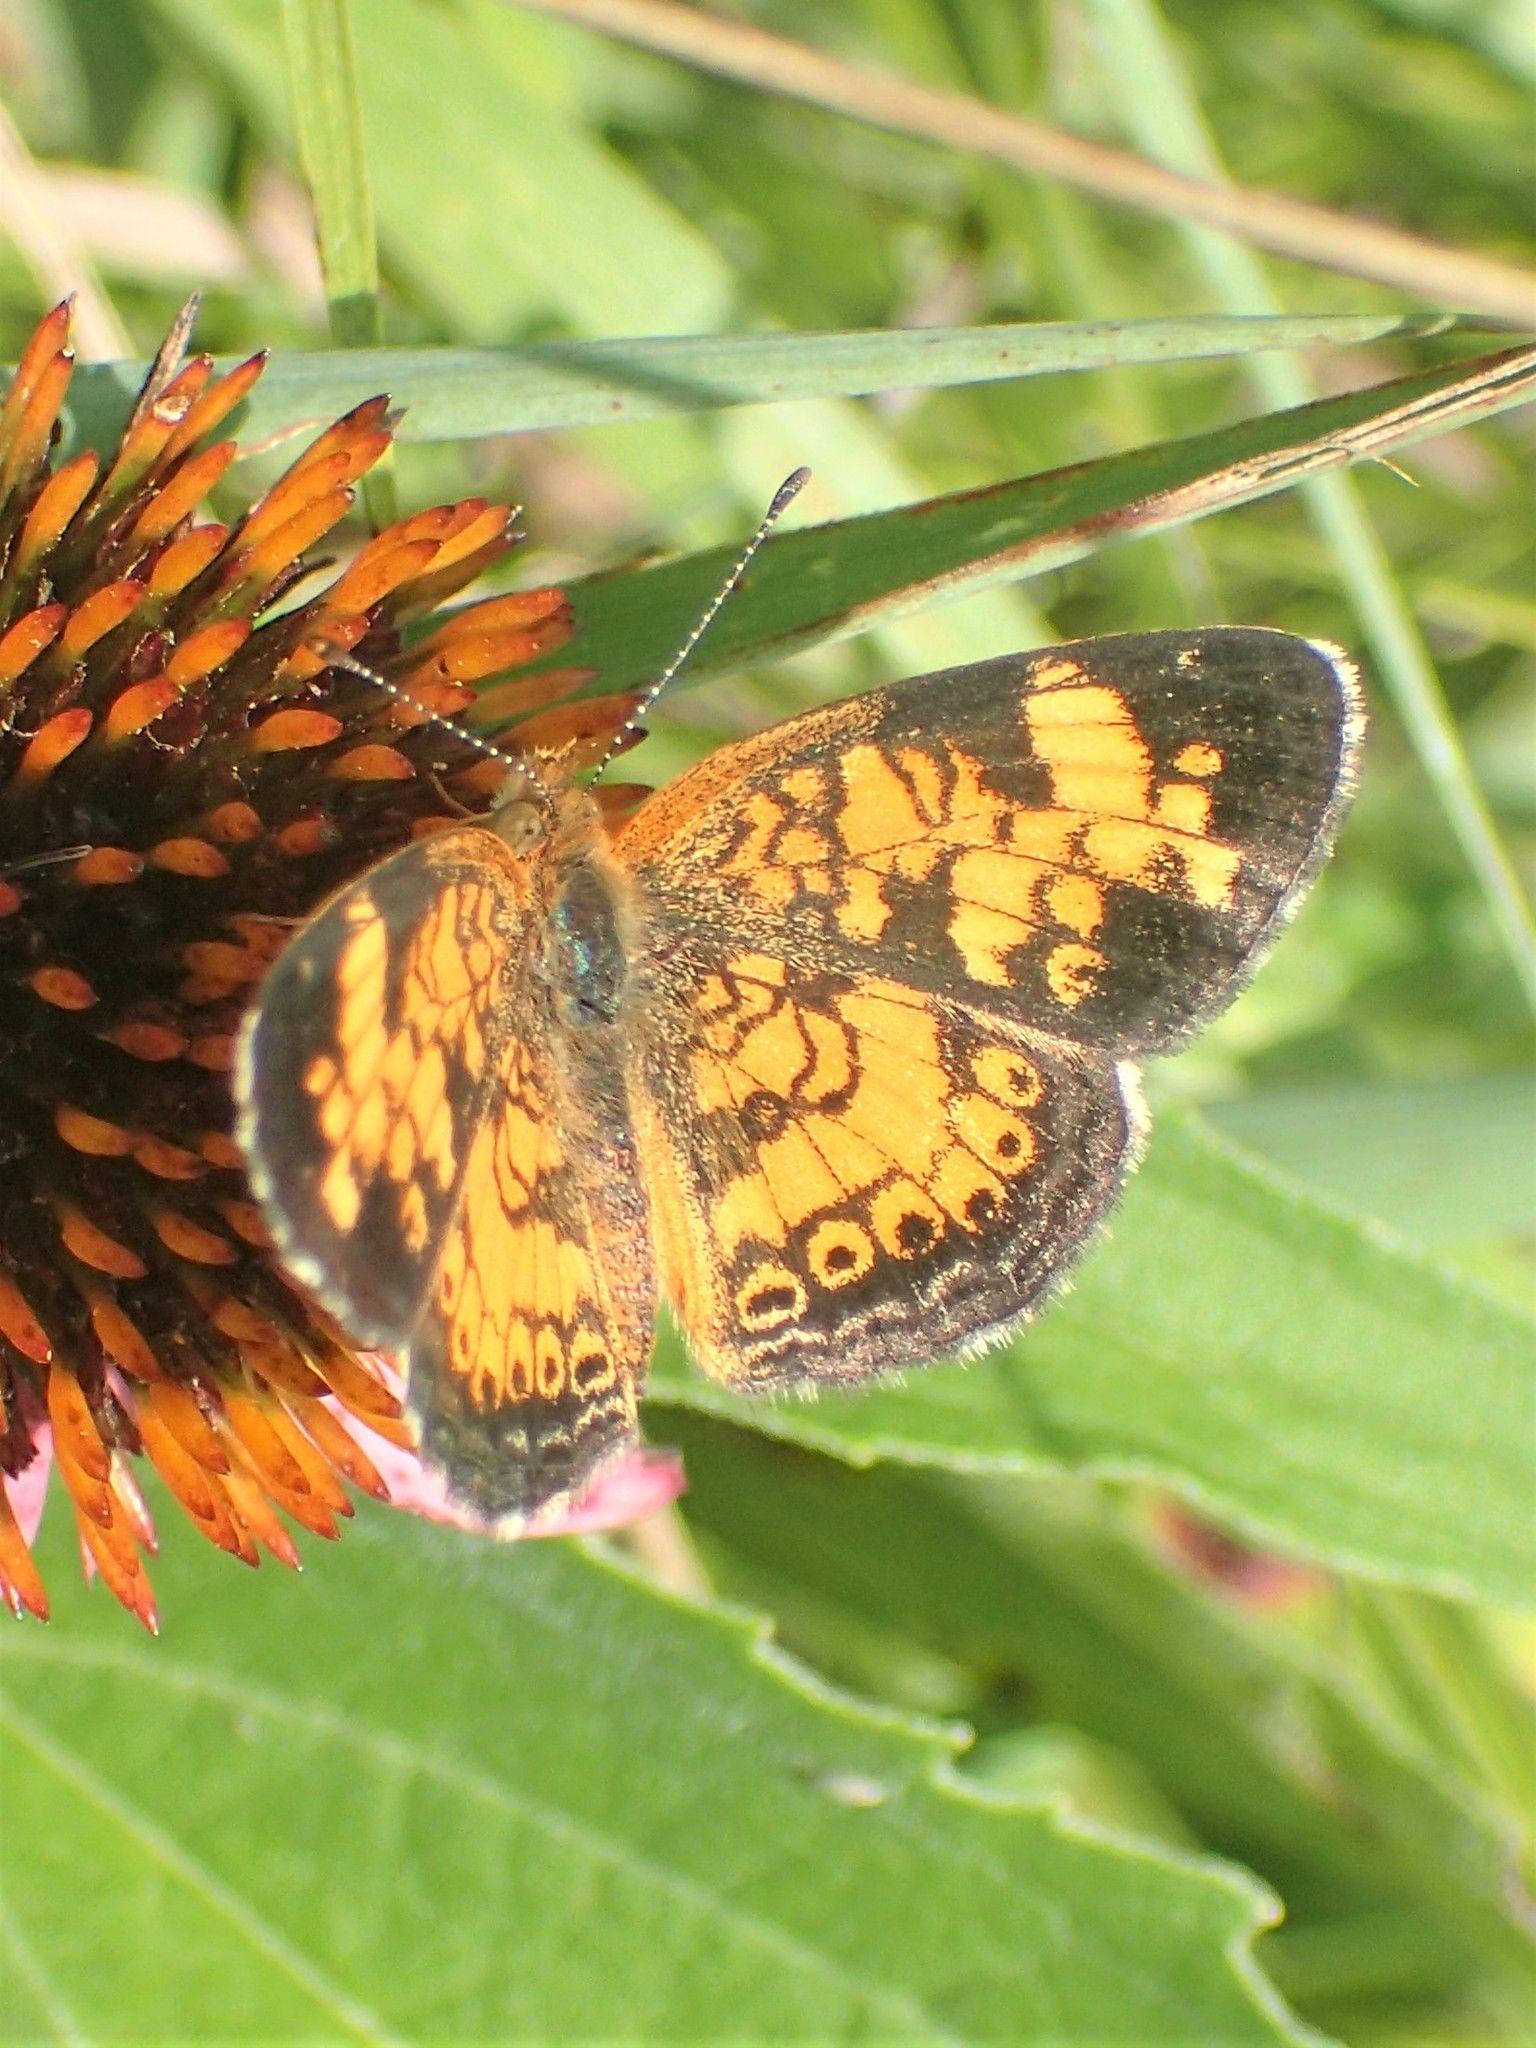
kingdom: Animalia
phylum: Arthropoda
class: Insecta
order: Lepidoptera
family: Nymphalidae
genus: Phyciodes
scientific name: Phyciodes tharos
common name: Pearl crescent
